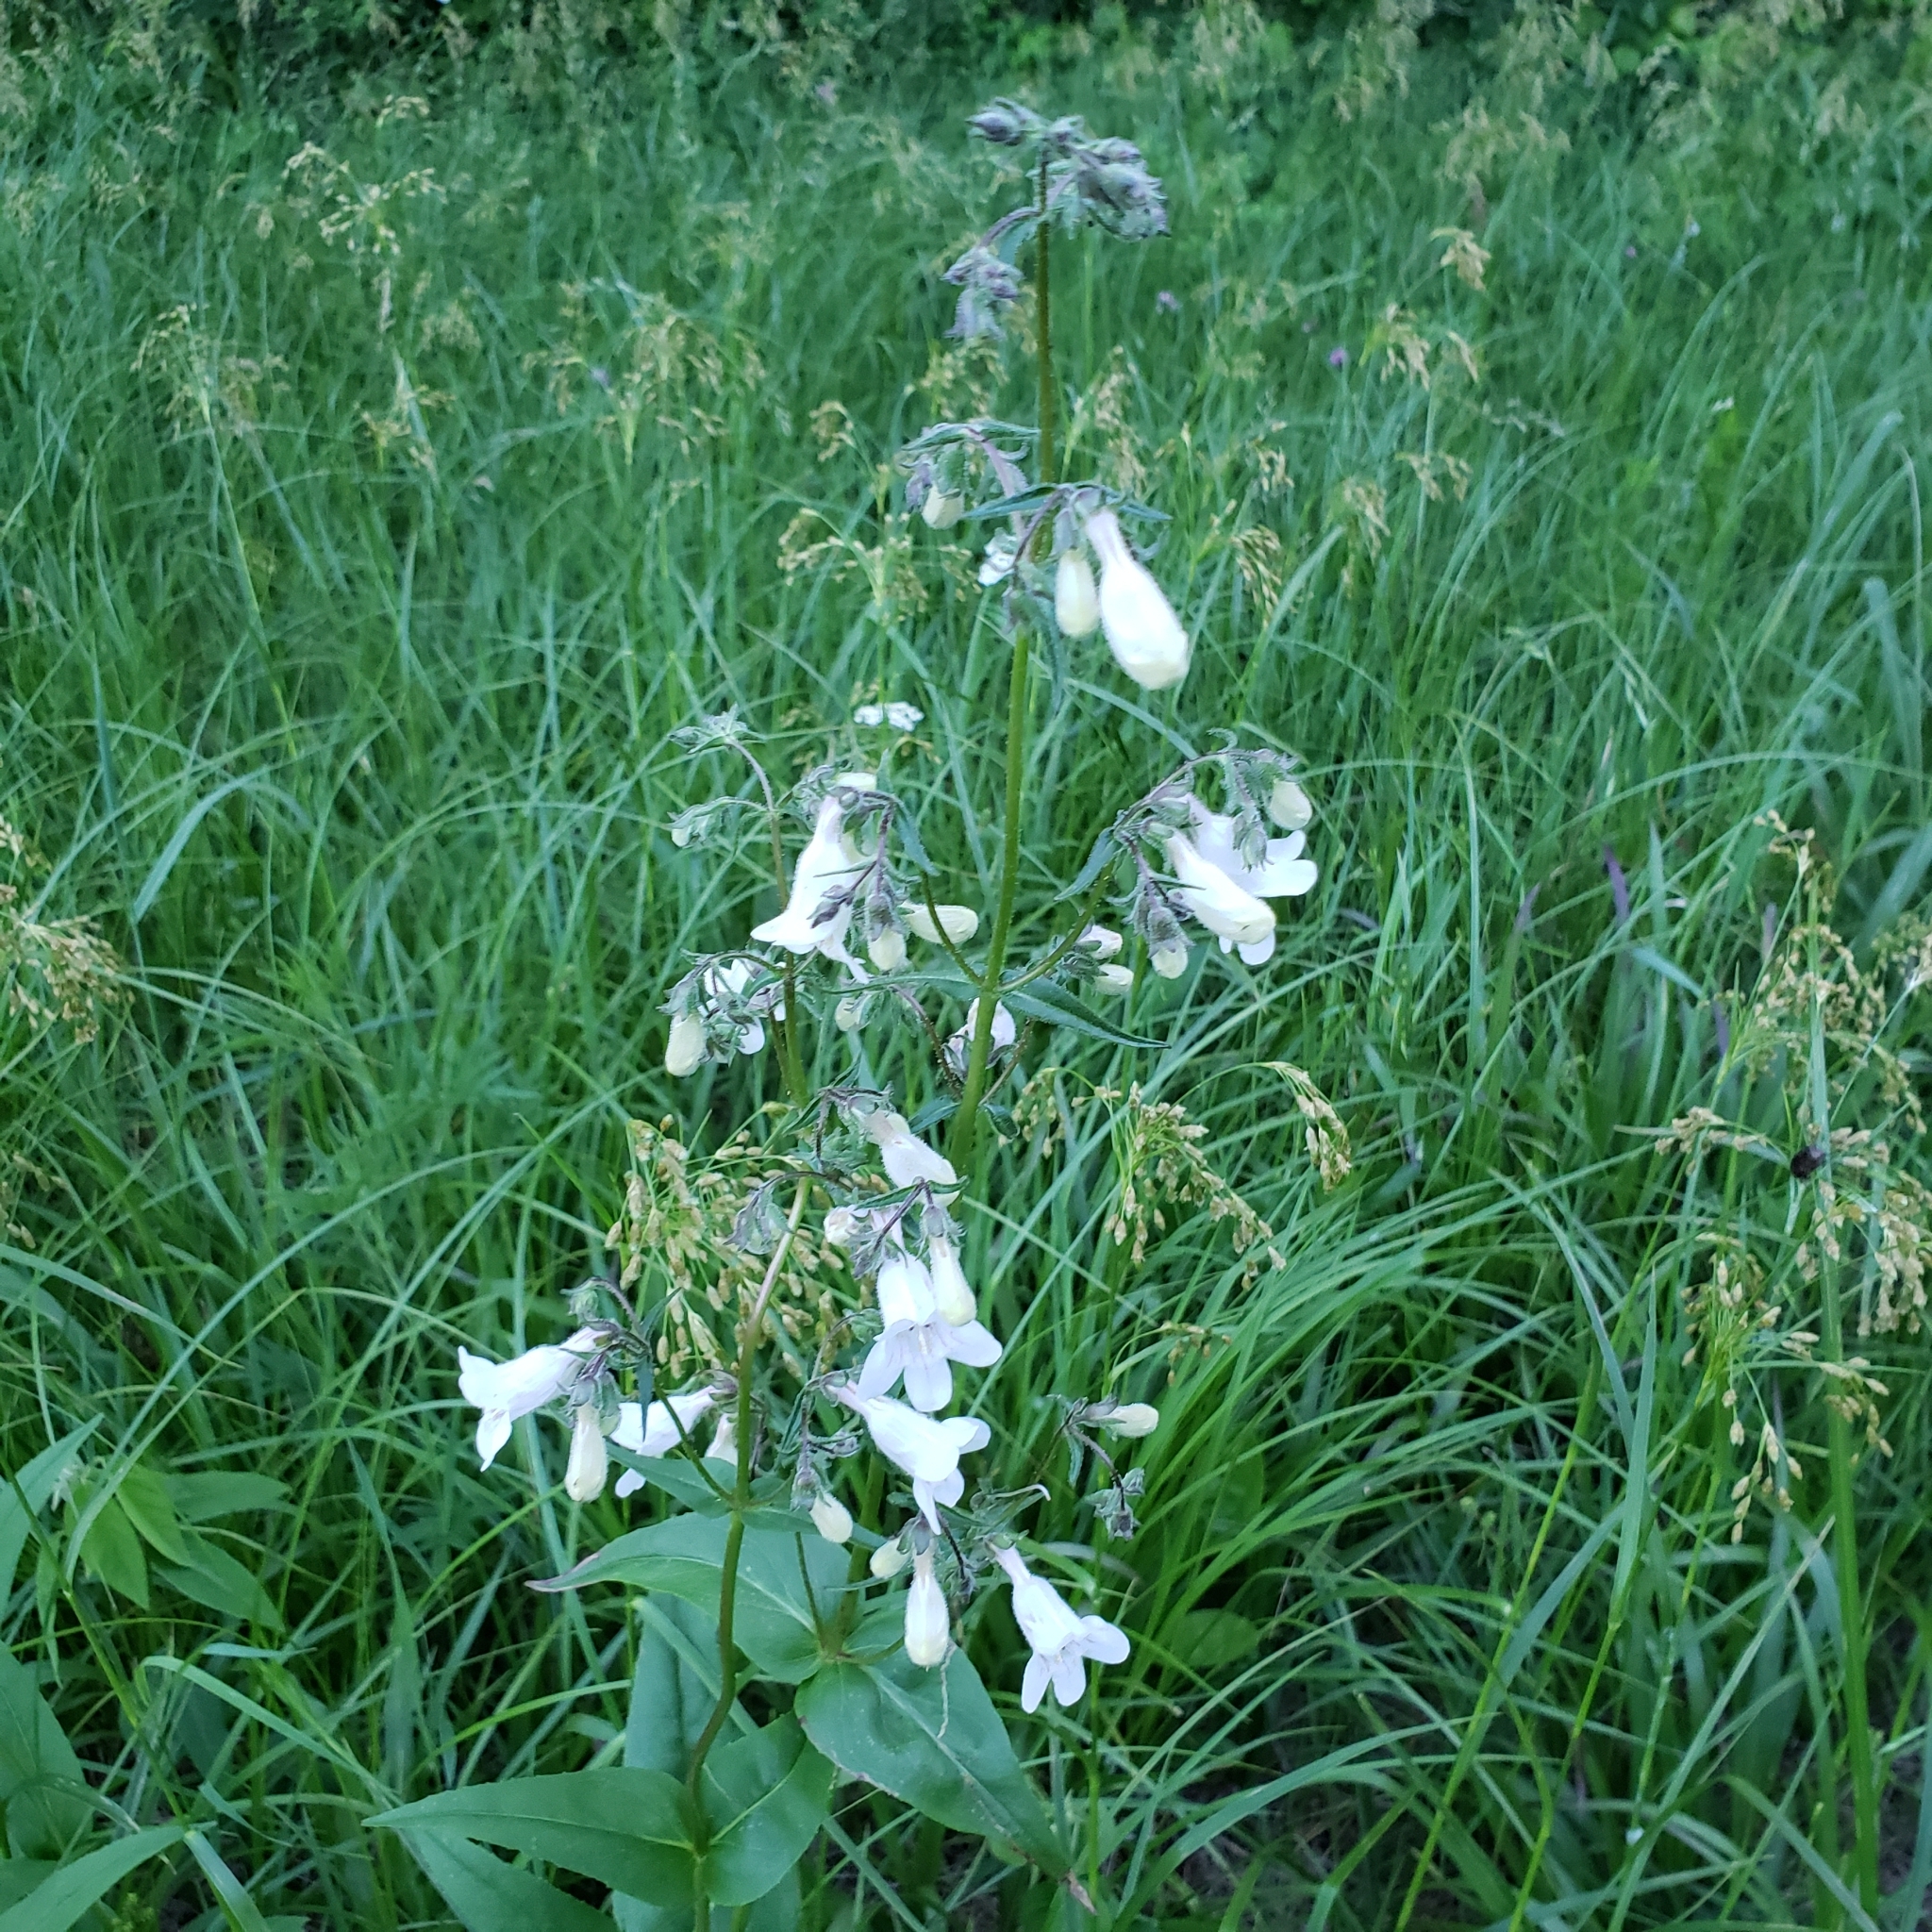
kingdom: Plantae
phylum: Tracheophyta
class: Magnoliopsida
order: Lamiales
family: Plantaginaceae
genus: Penstemon
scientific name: Penstemon digitalis
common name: Foxglove beardtongue
